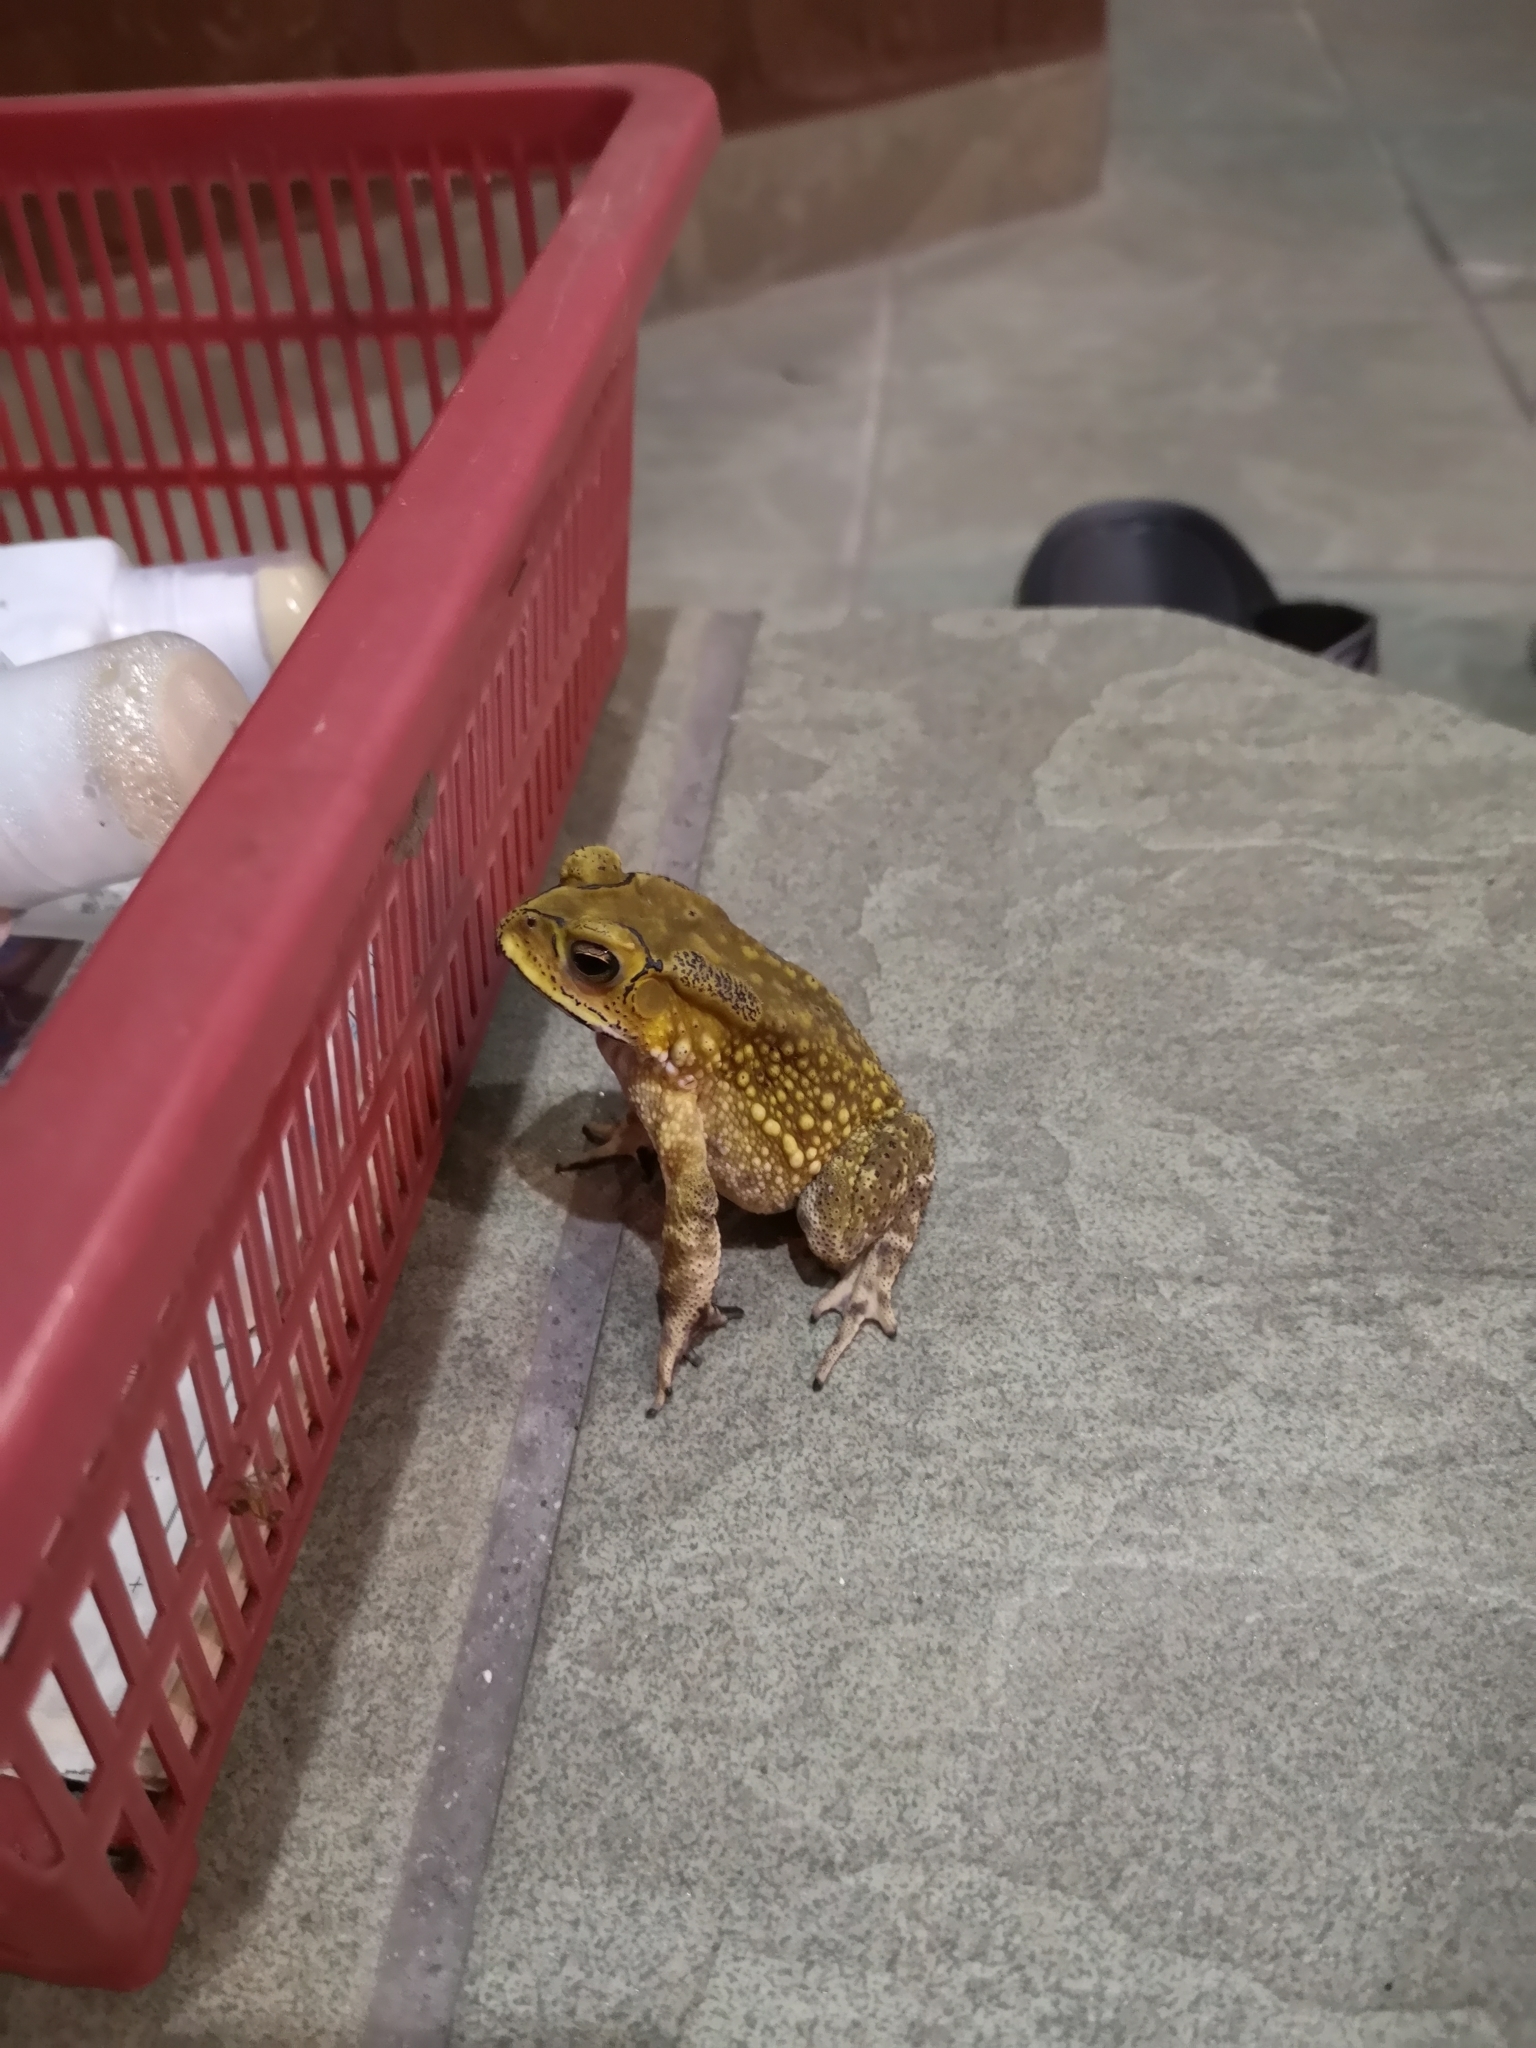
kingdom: Animalia
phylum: Chordata
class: Amphibia
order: Anura
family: Bufonidae
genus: Duttaphrynus
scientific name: Duttaphrynus melanostictus
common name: Common sunda toad
